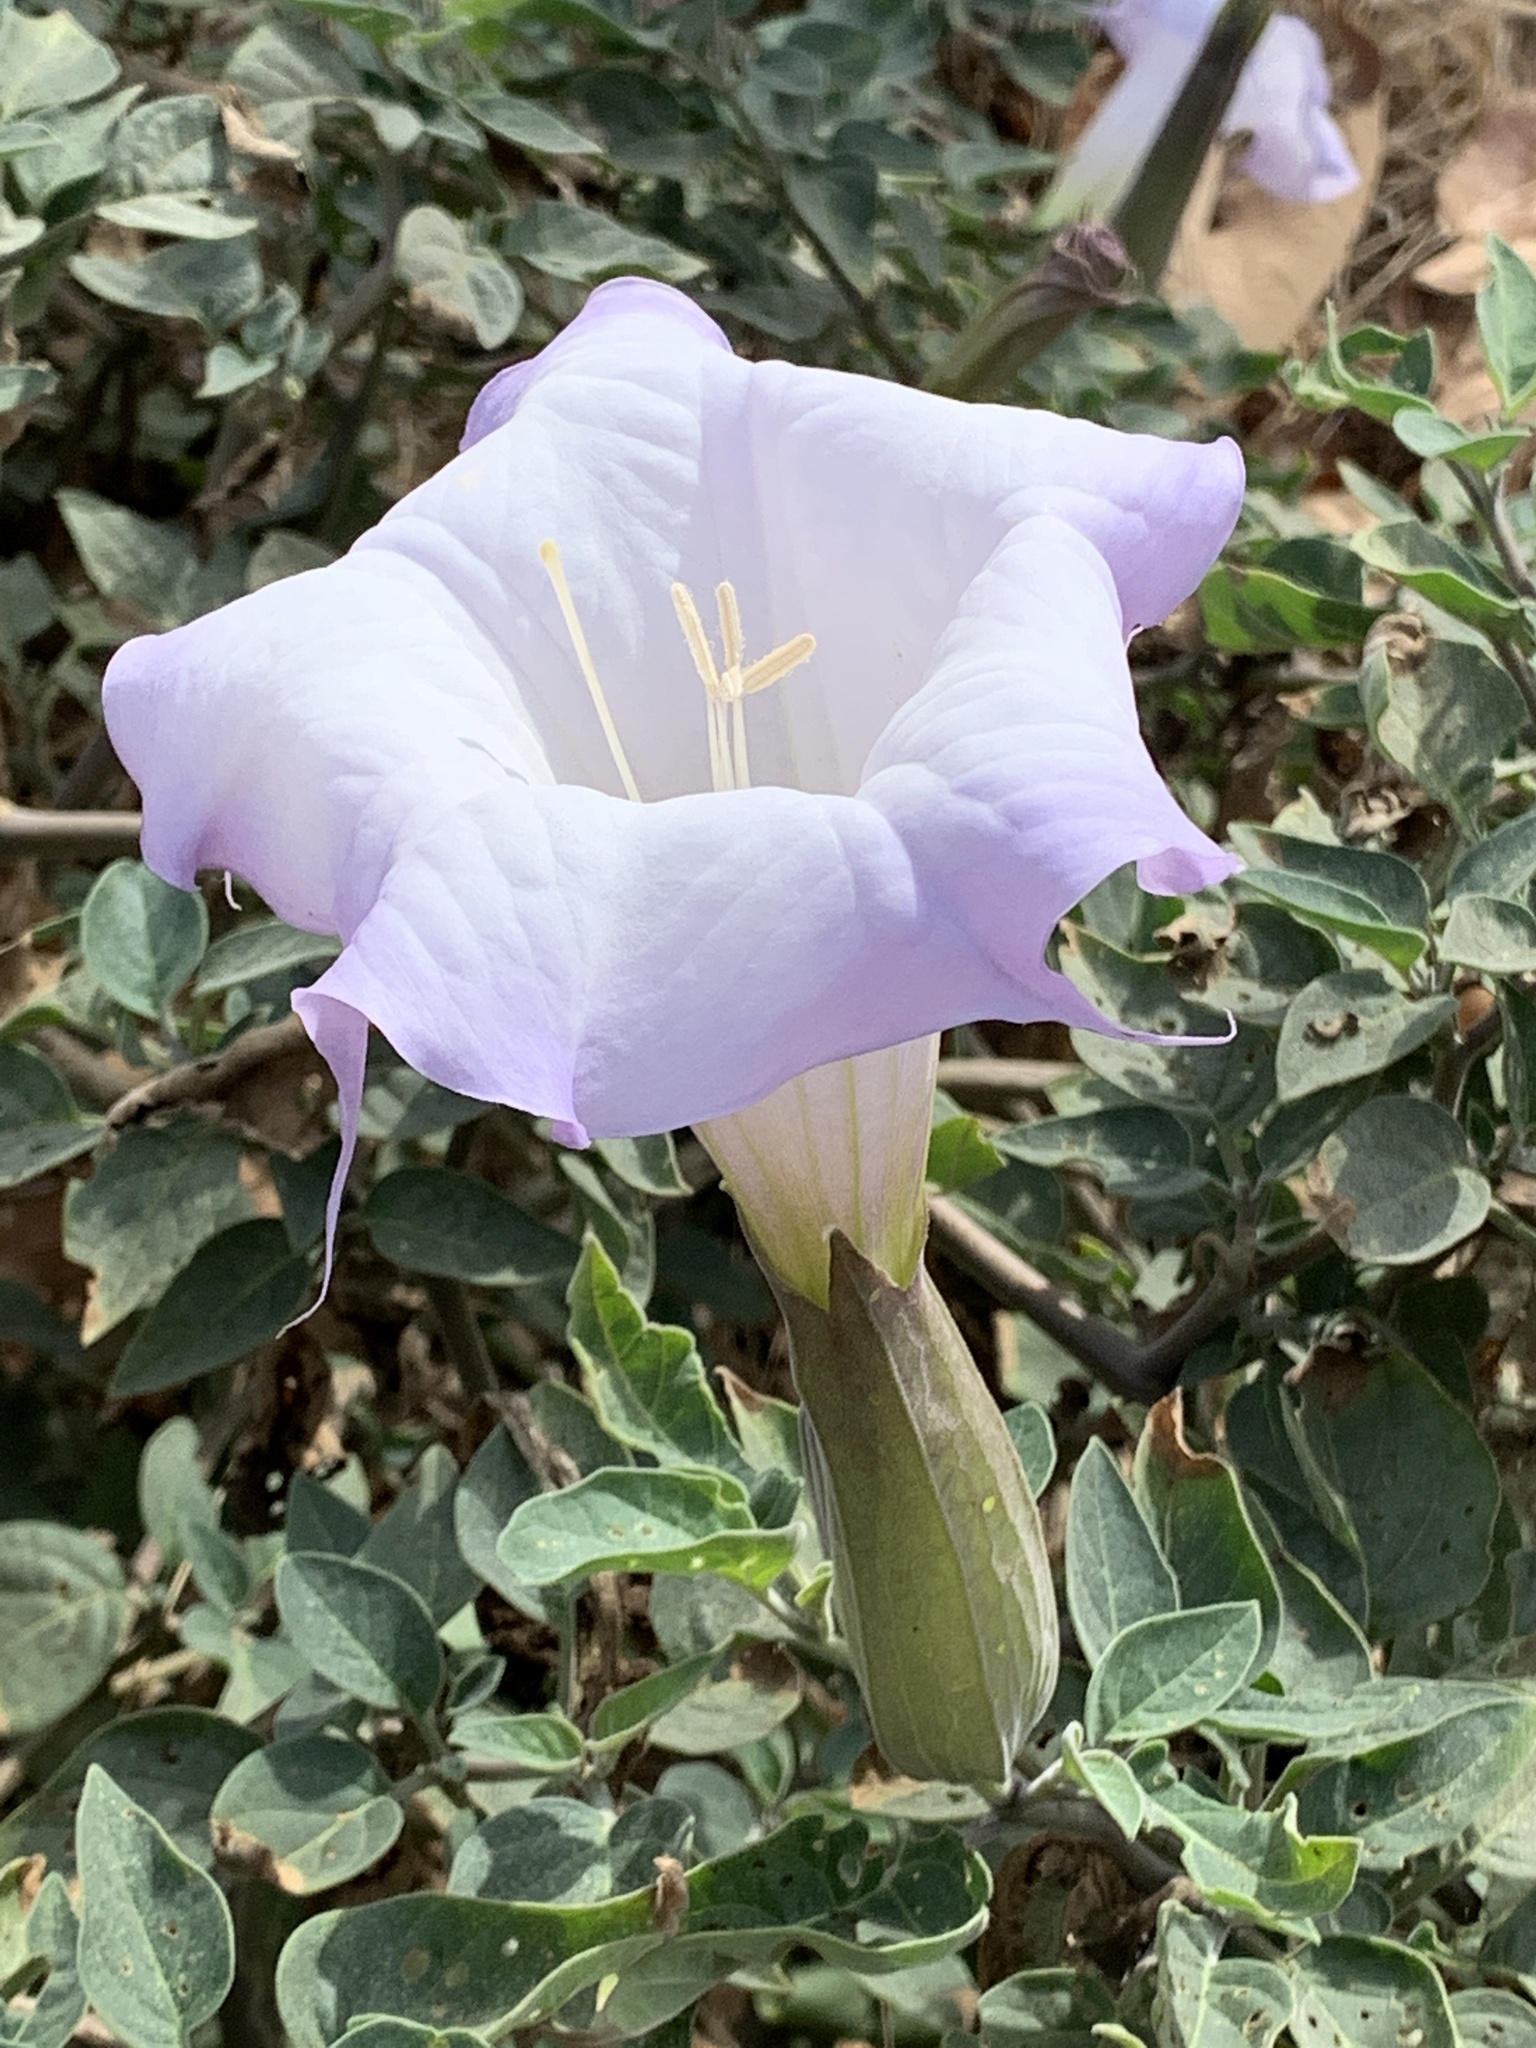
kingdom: Plantae
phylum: Tracheophyta
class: Magnoliopsida
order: Solanales
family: Solanaceae
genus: Datura
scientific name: Datura wrightii
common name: Sacred thorn-apple
